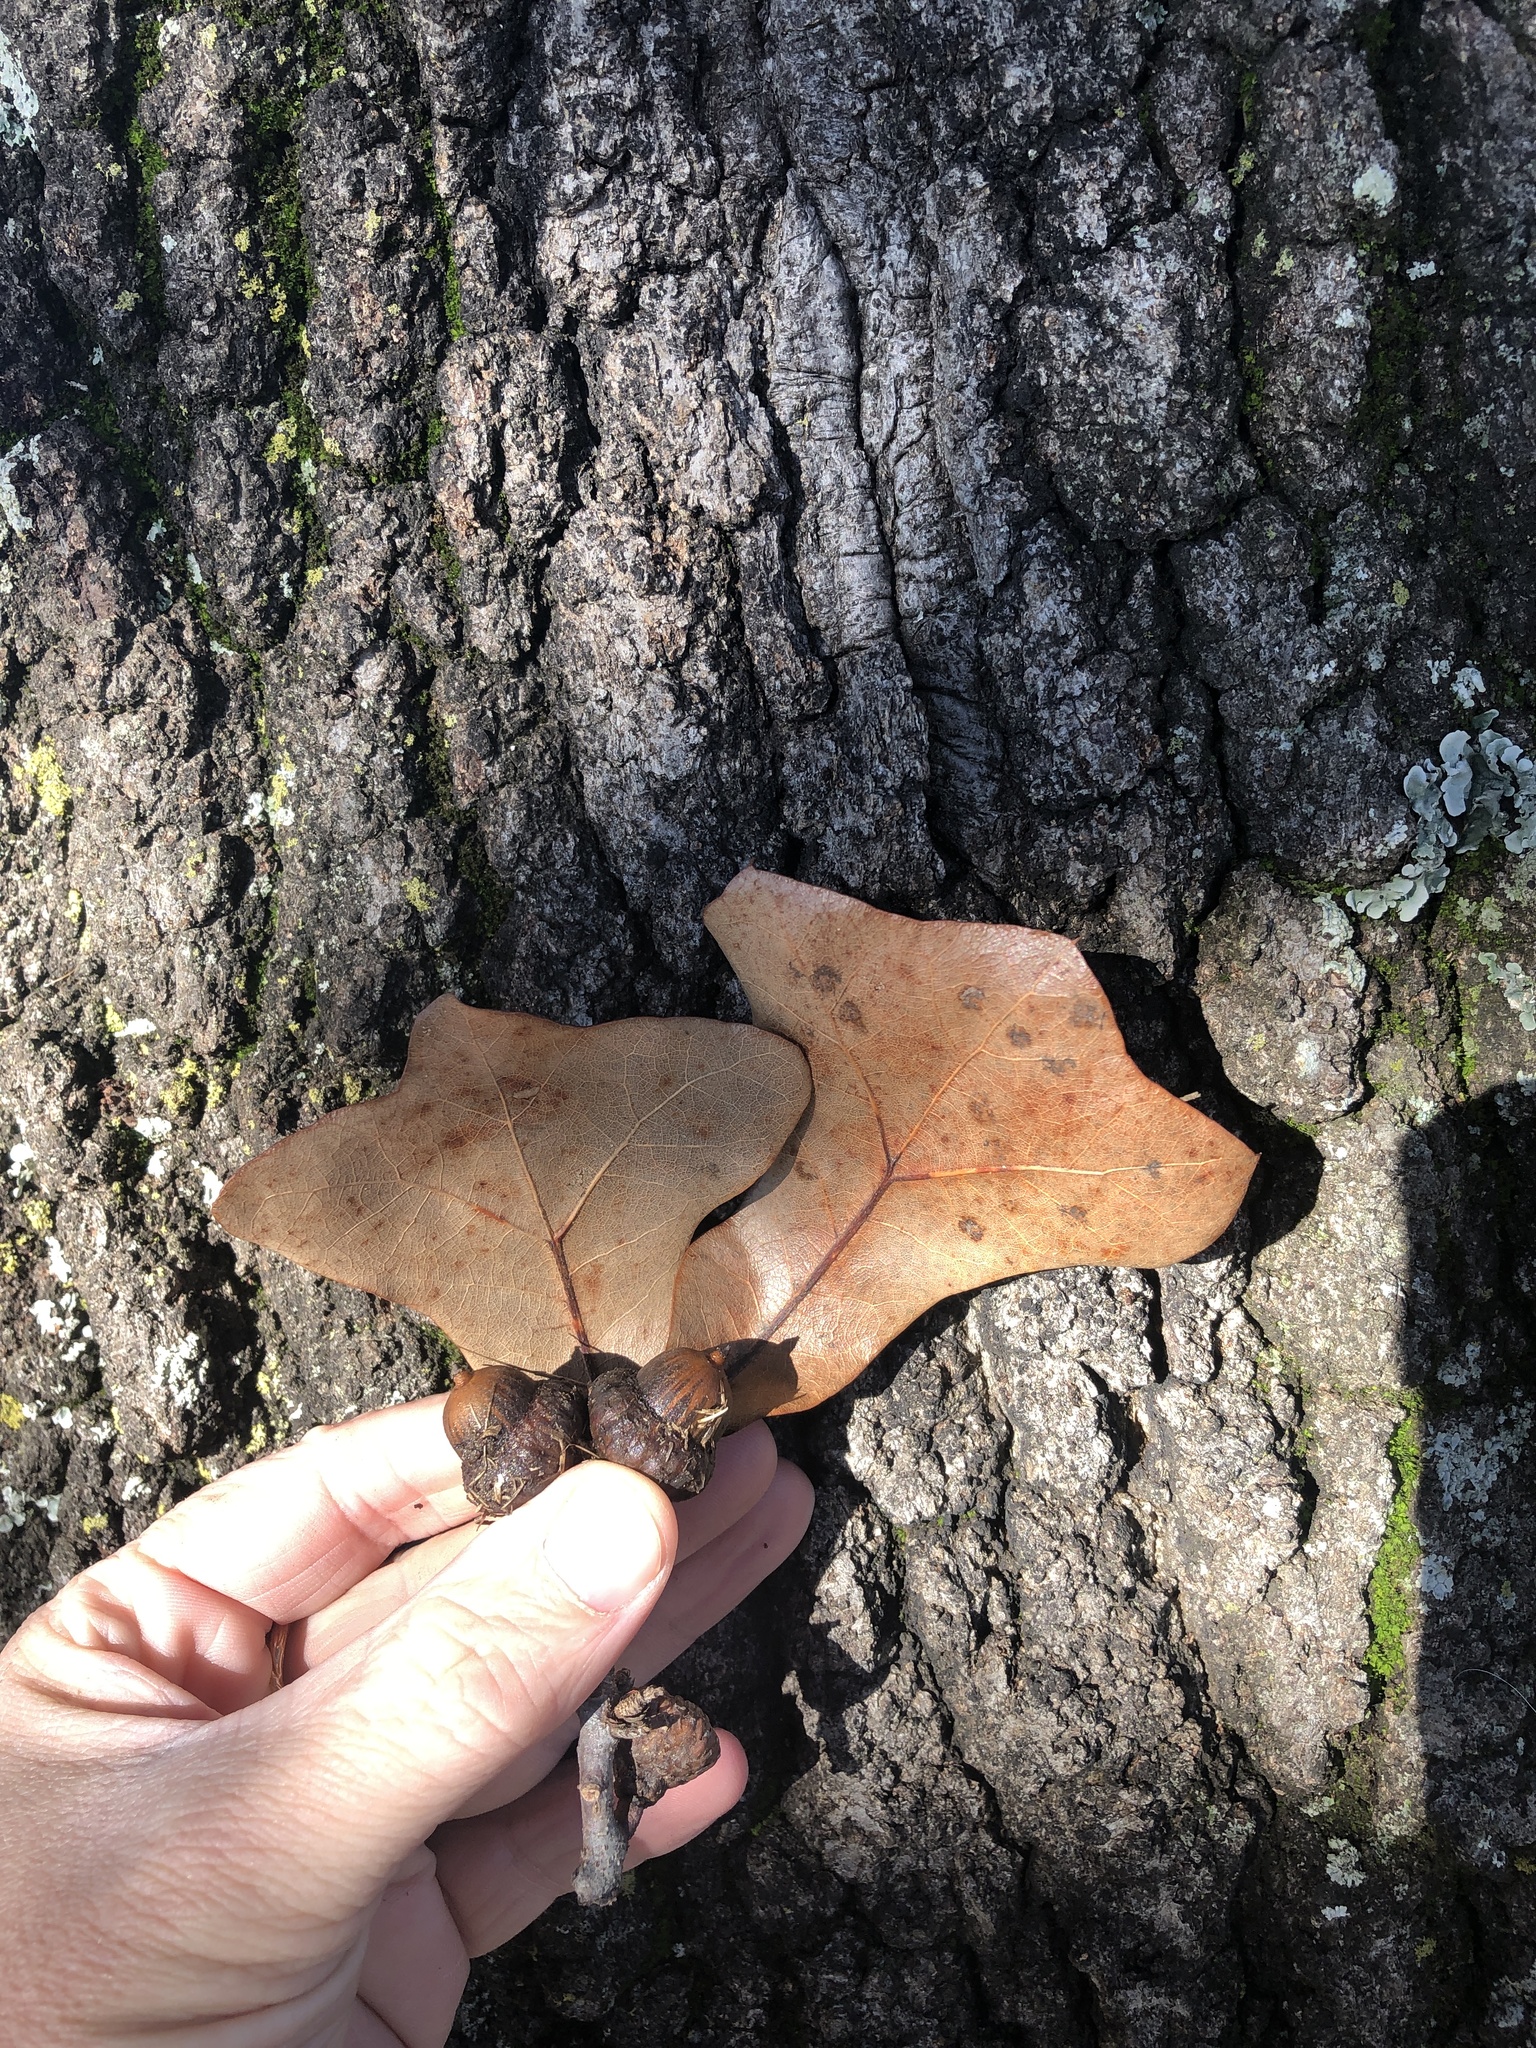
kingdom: Plantae
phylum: Tracheophyta
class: Magnoliopsida
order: Fagales
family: Fagaceae
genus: Quercus
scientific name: Quercus marilandica
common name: Blackjack oak
